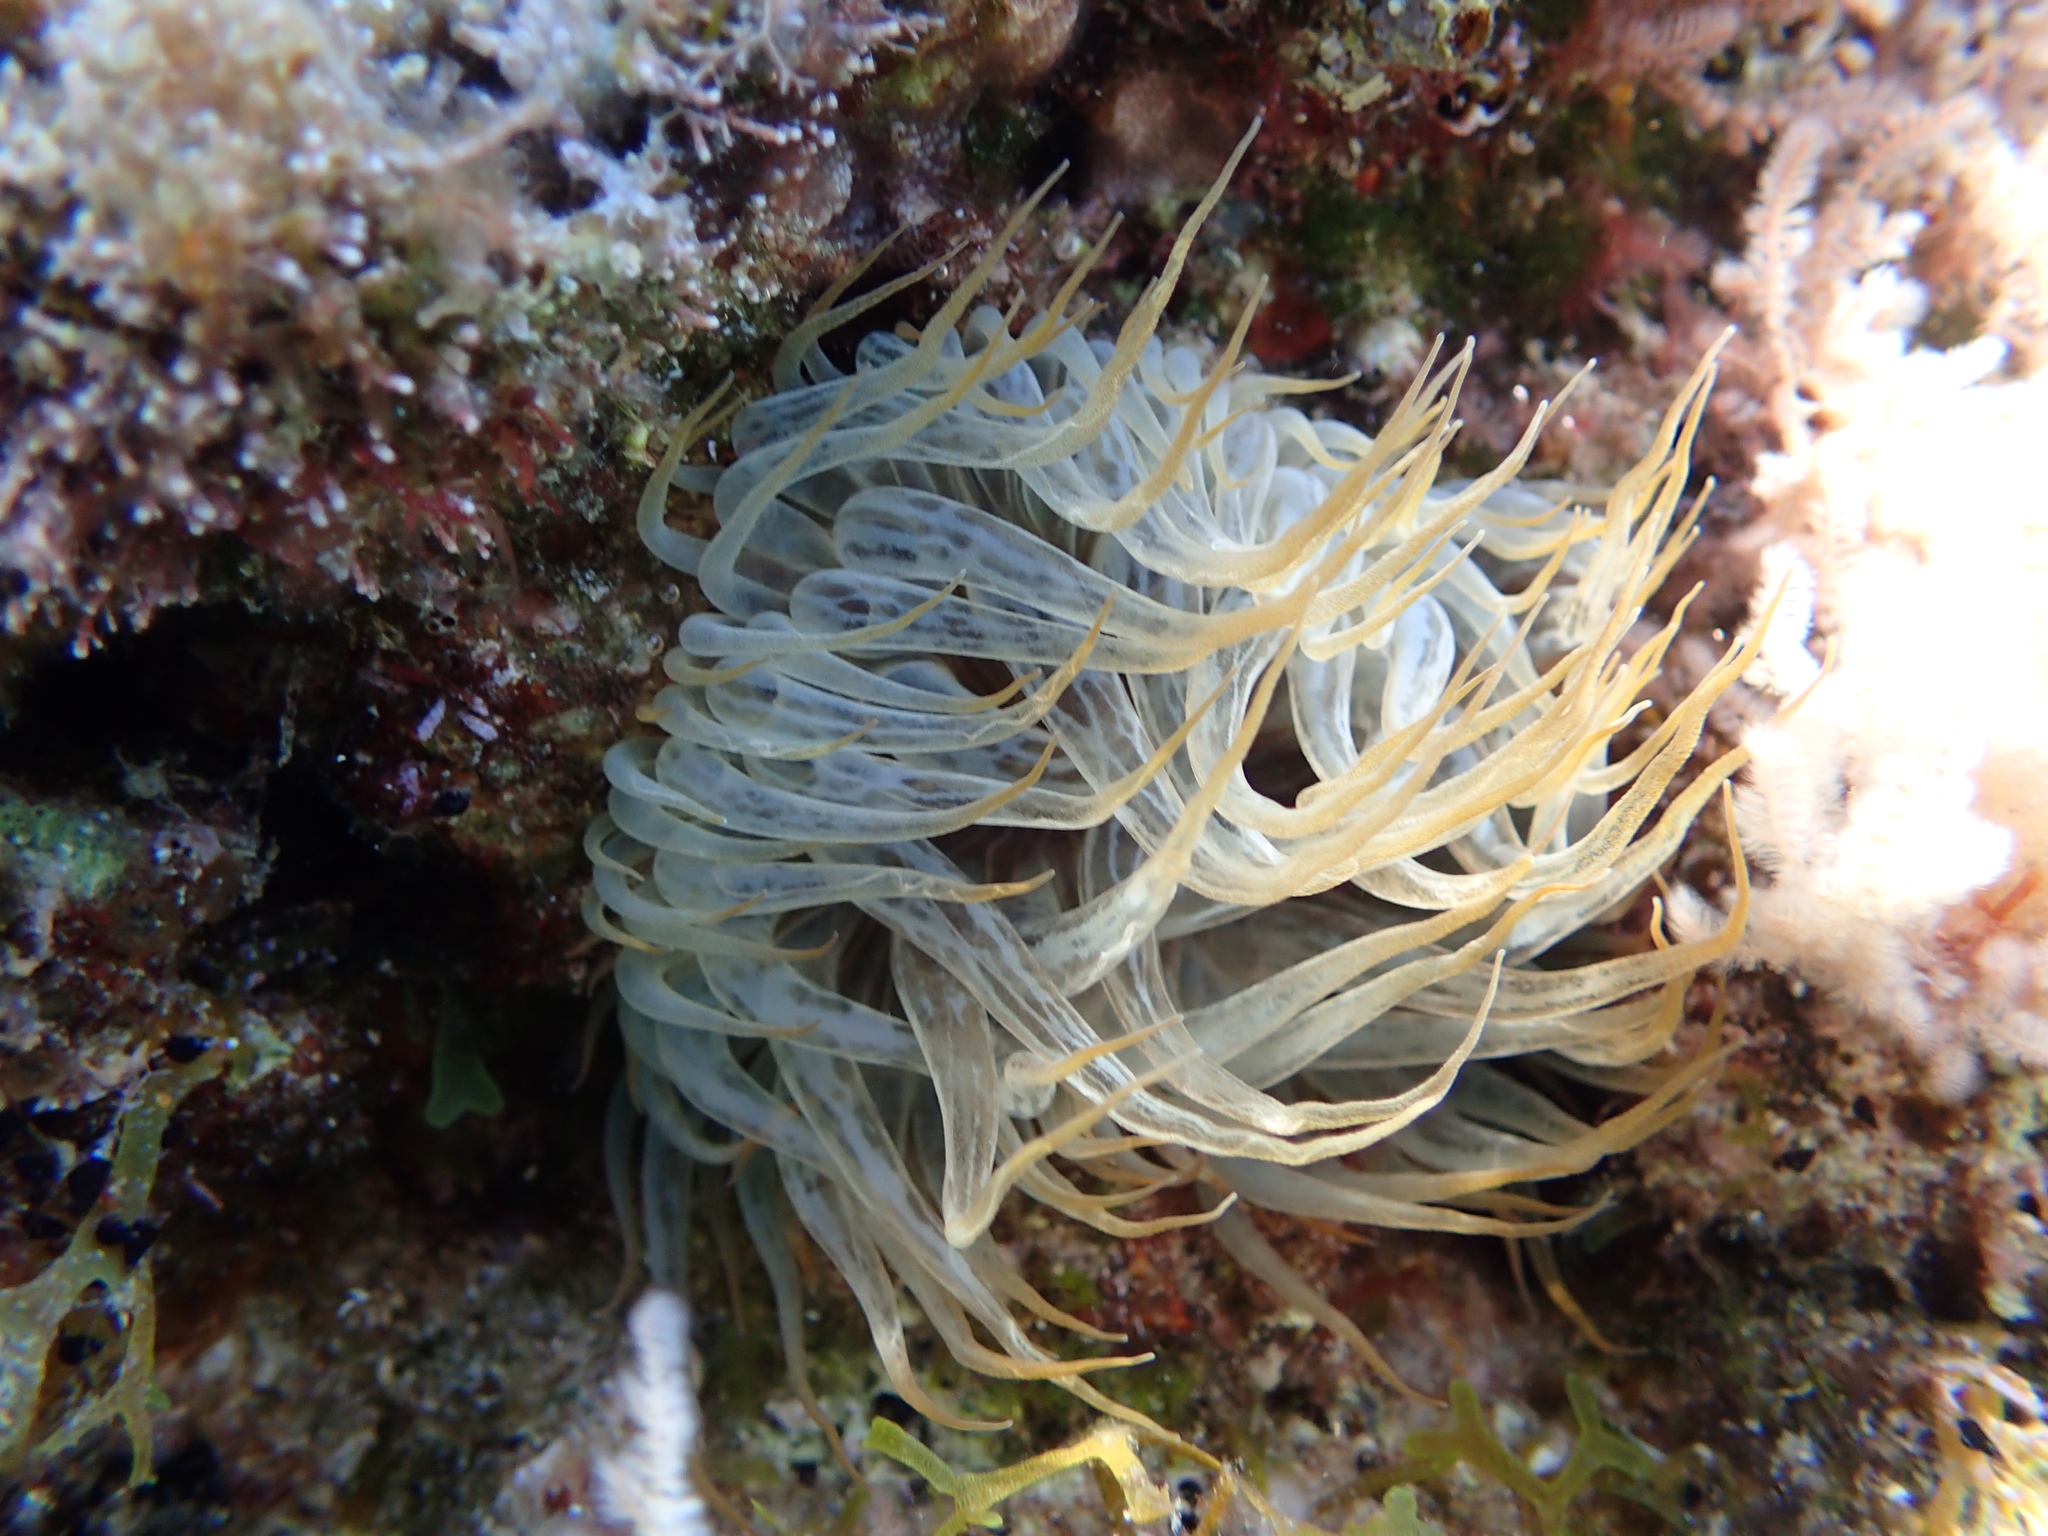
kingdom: Animalia
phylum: Cnidaria
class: Anthozoa
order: Actiniaria
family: Aiptasiidae
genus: Aiptasia
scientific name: Aiptasia mutabilis
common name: Trumpet anemone
